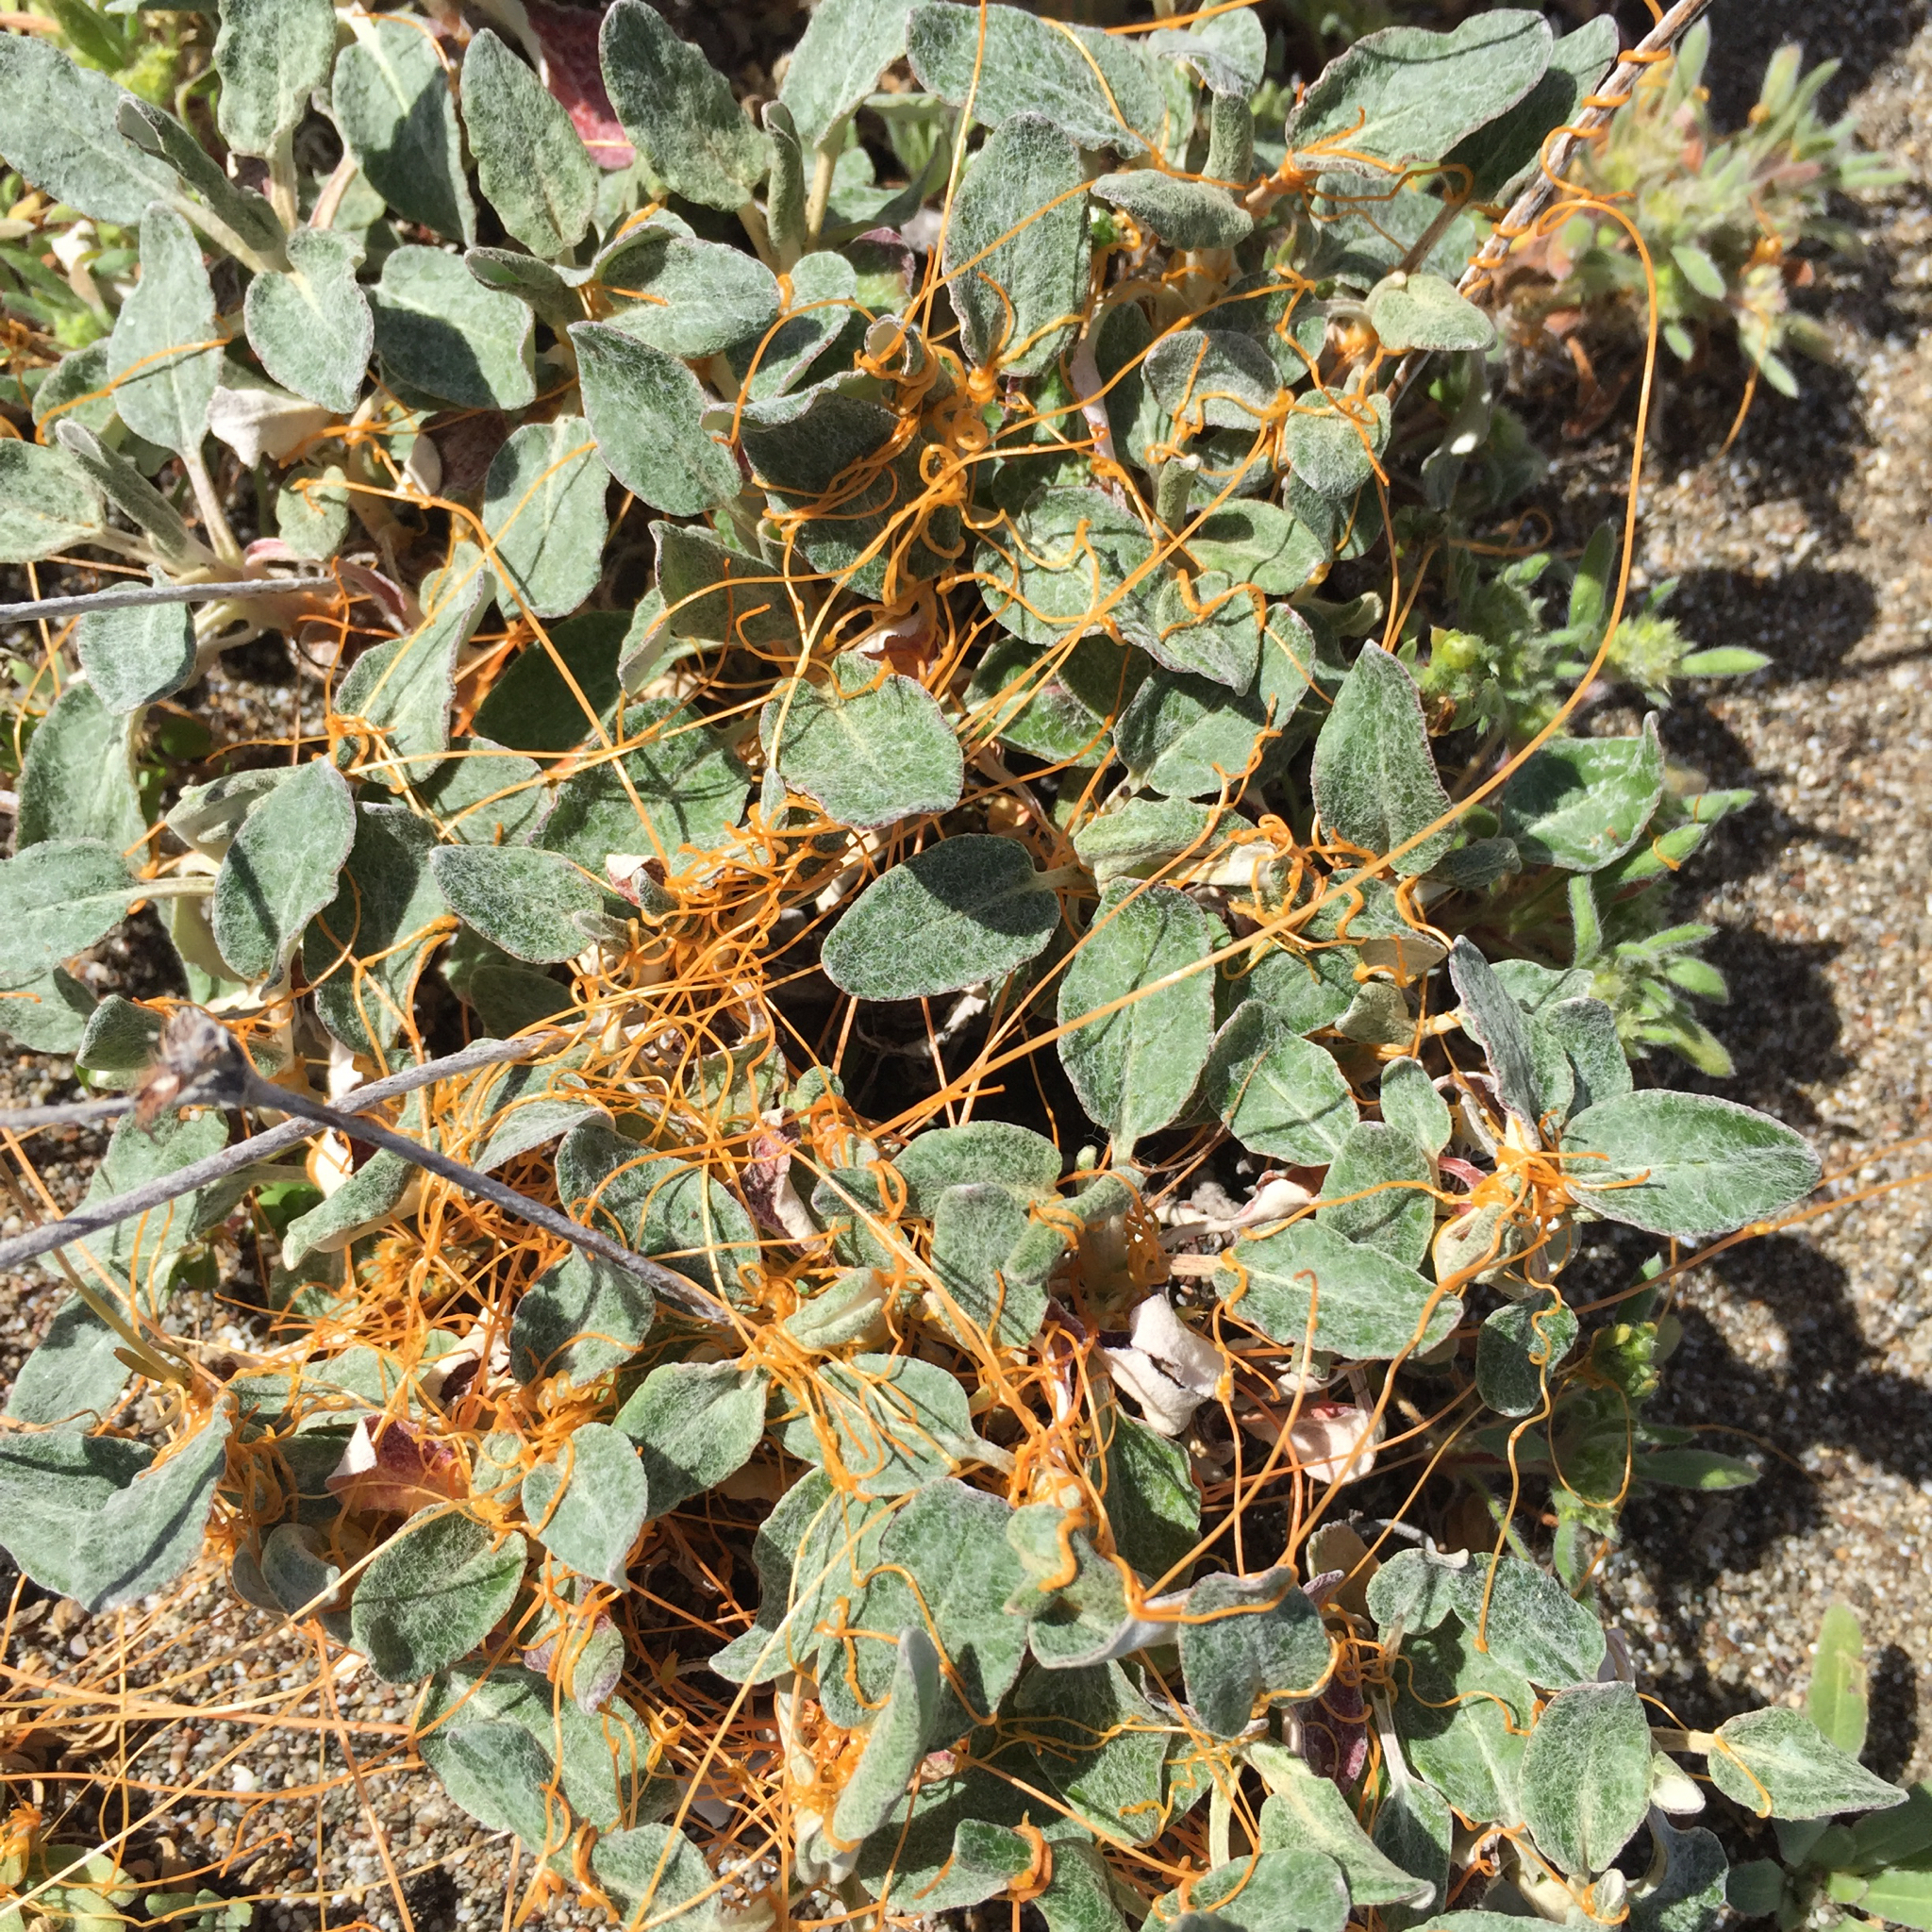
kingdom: Plantae
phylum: Tracheophyta
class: Magnoliopsida
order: Solanales
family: Convolvulaceae
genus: Cuscuta
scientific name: Cuscuta occidentalis
